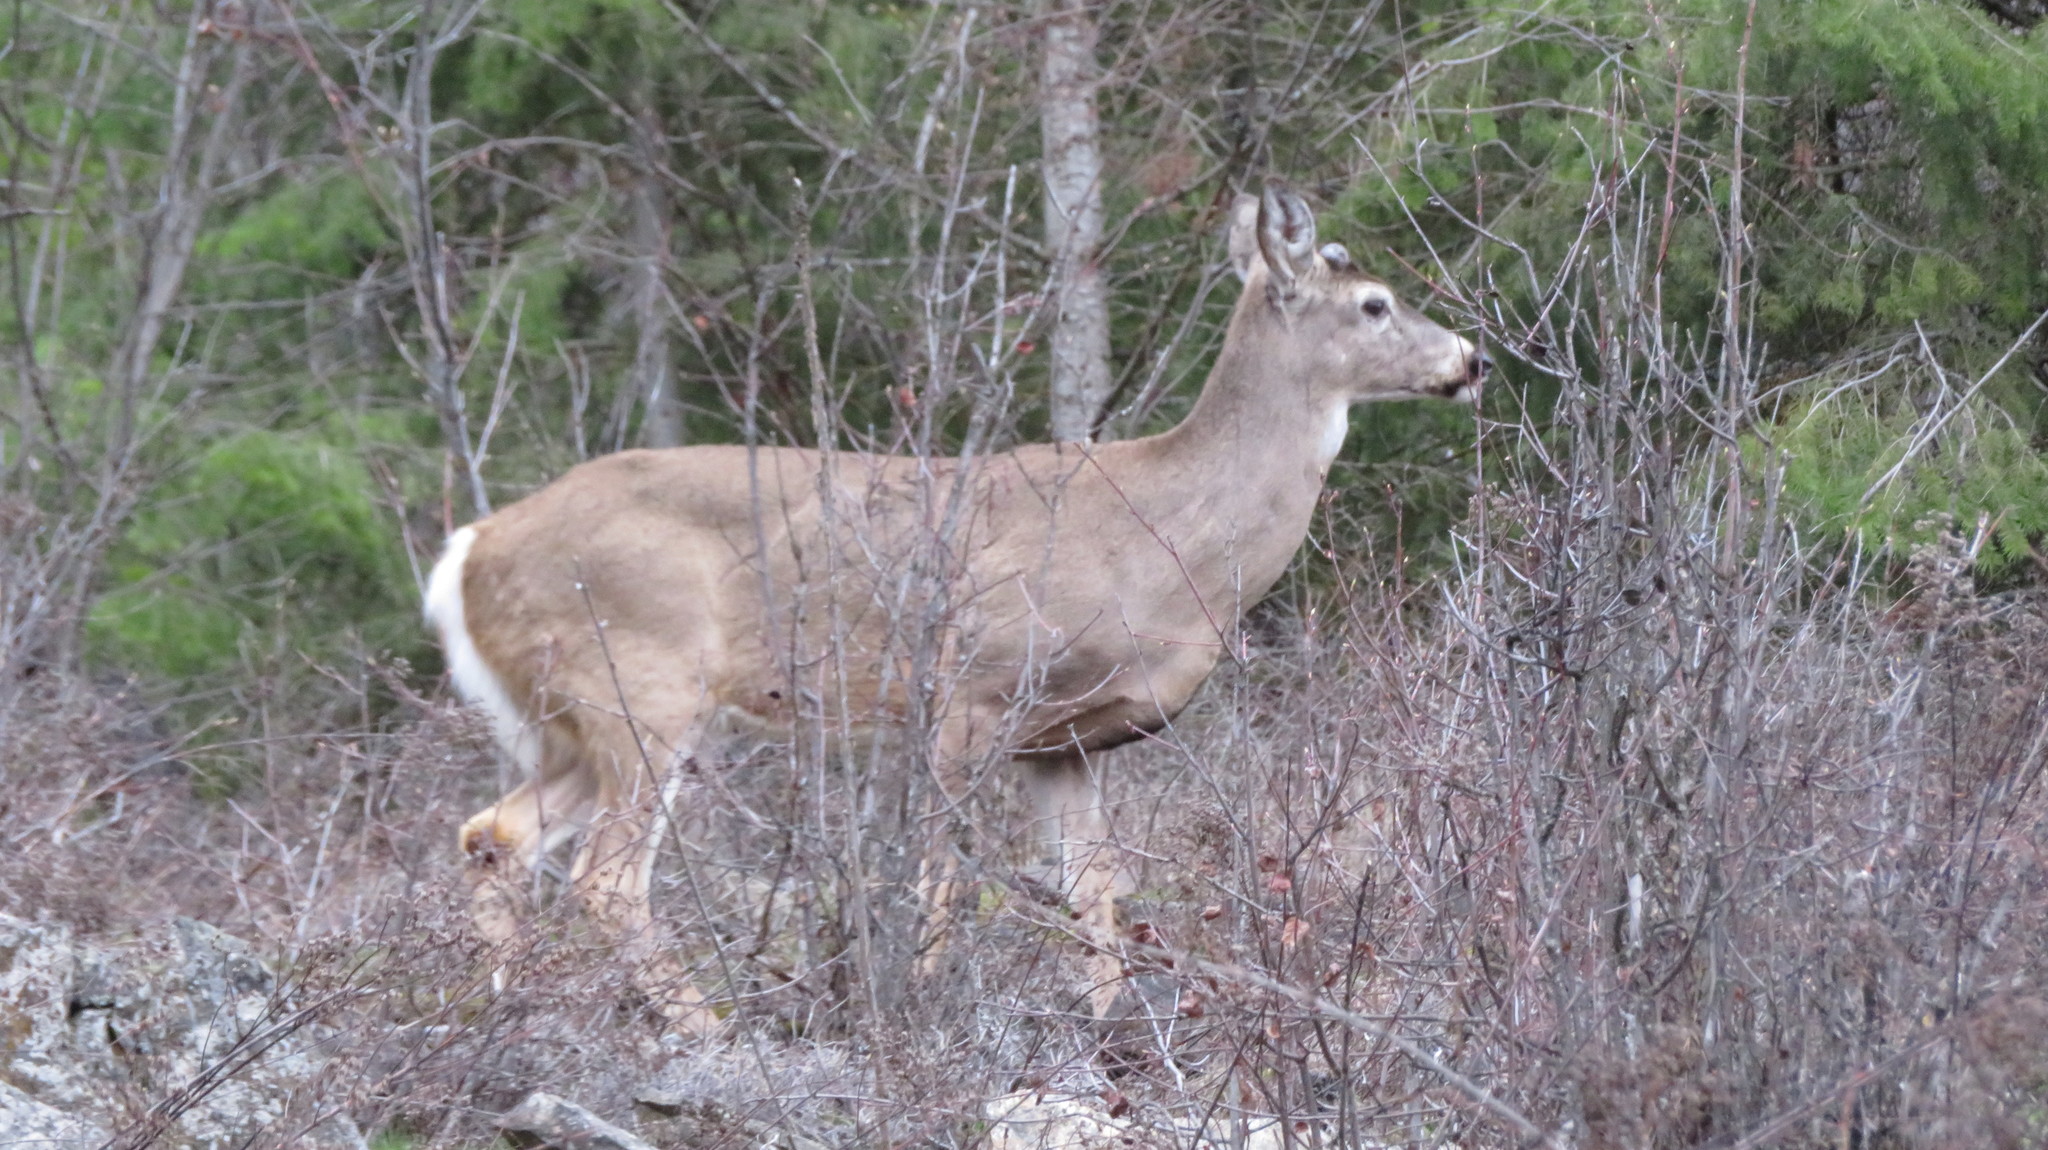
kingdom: Animalia
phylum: Chordata
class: Mammalia
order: Artiodactyla
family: Cervidae
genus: Odocoileus
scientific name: Odocoileus virginianus
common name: White-tailed deer
